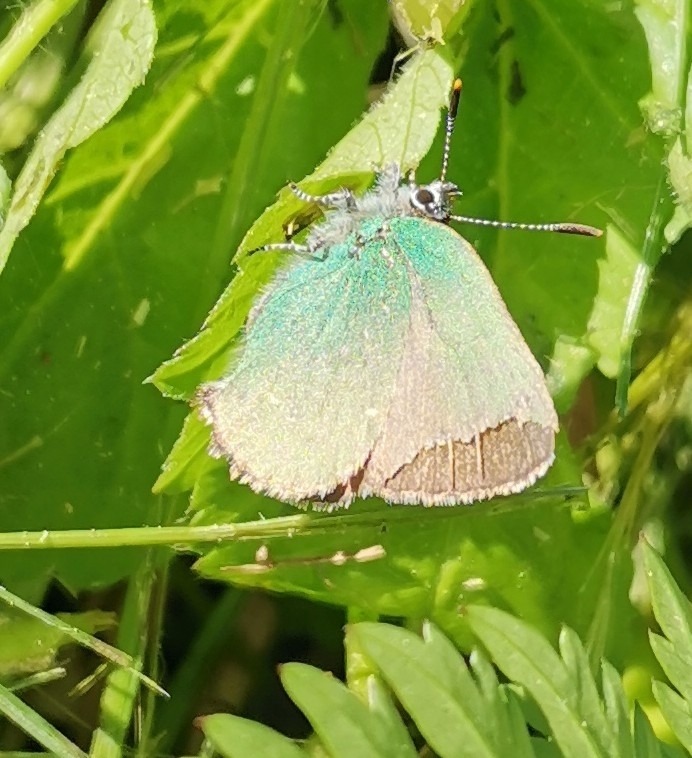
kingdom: Animalia
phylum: Arthropoda
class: Insecta
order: Lepidoptera
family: Lycaenidae
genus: Callophrys
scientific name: Callophrys rubi
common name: Green hairstreak
